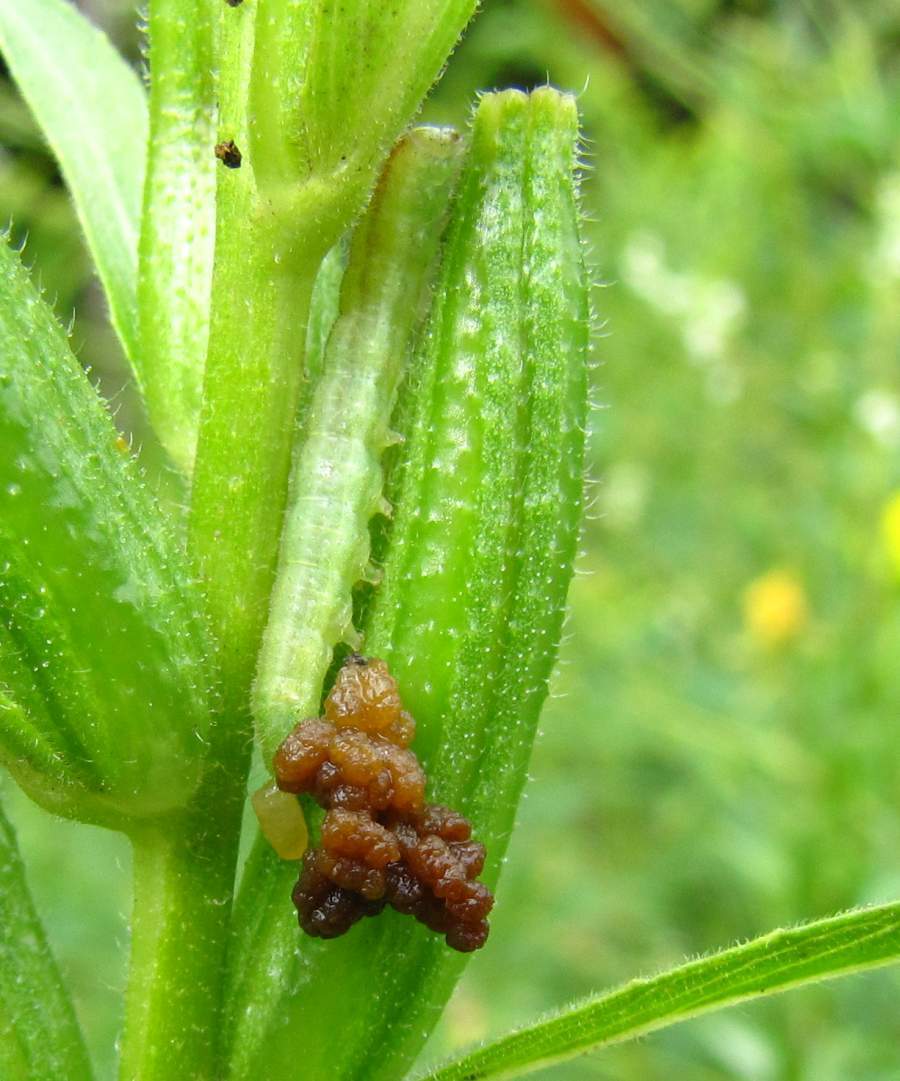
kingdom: Animalia
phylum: Arthropoda
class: Insecta
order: Lepidoptera
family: Noctuidae
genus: Schinia
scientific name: Schinia florida
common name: Primrose moth
